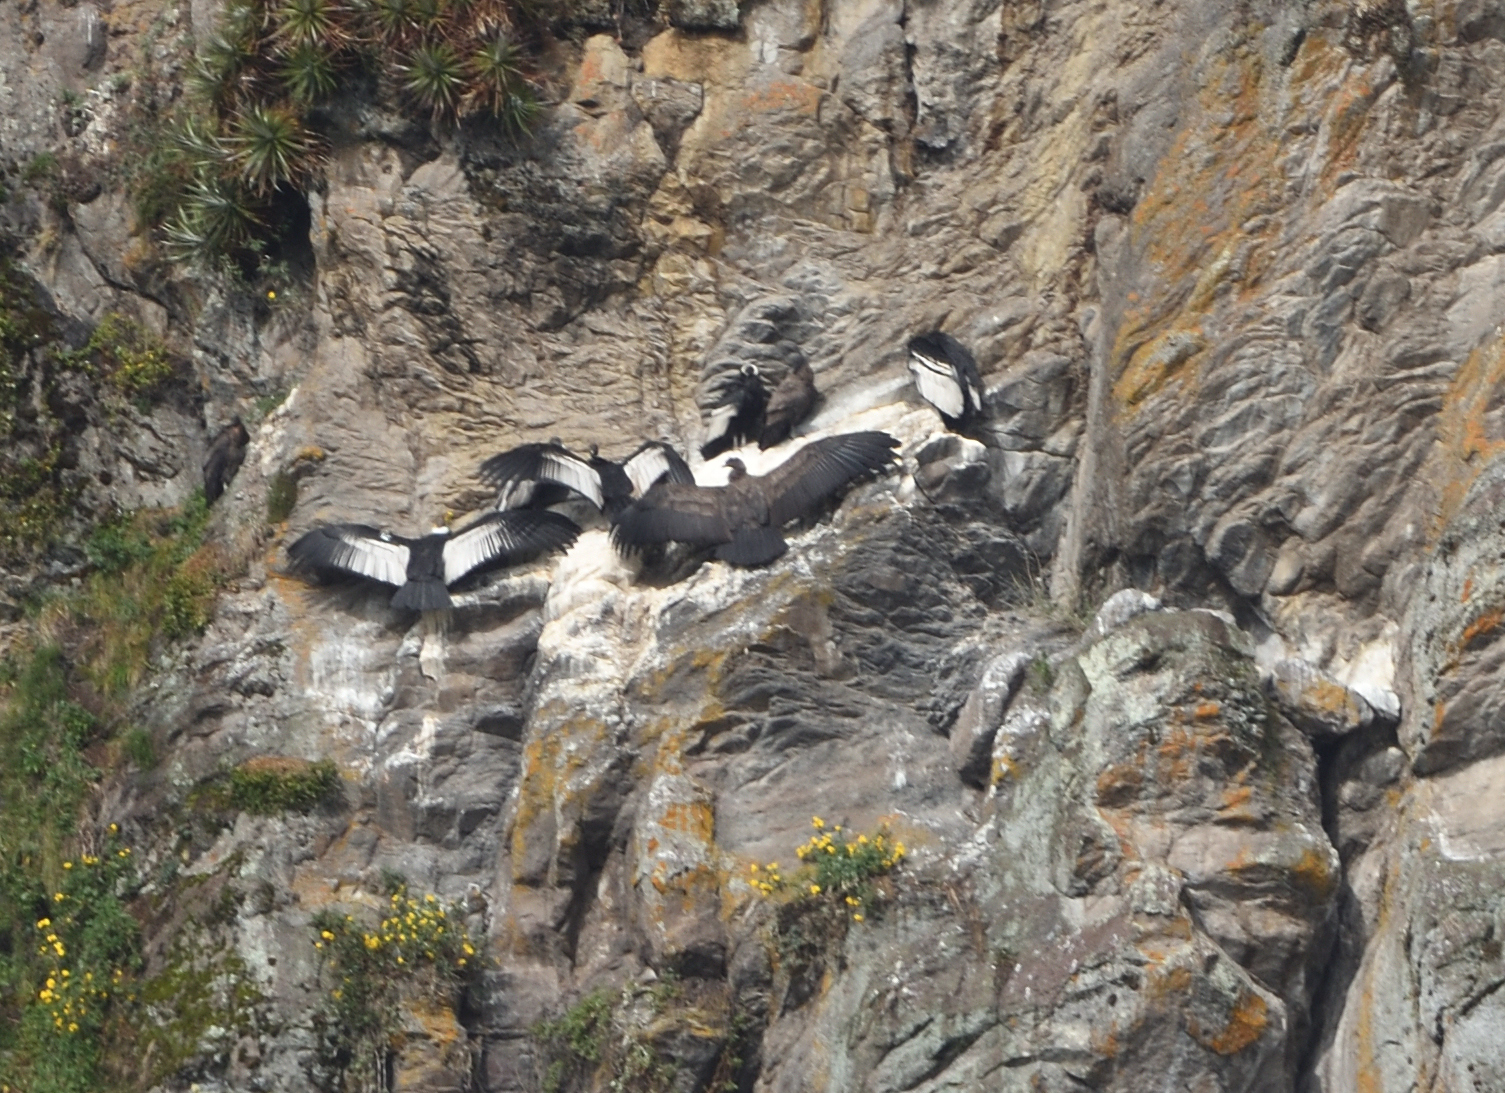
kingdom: Animalia
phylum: Chordata
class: Aves
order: Accipitriformes
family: Cathartidae
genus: Vultur
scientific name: Vultur gryphus
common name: Andean condor
